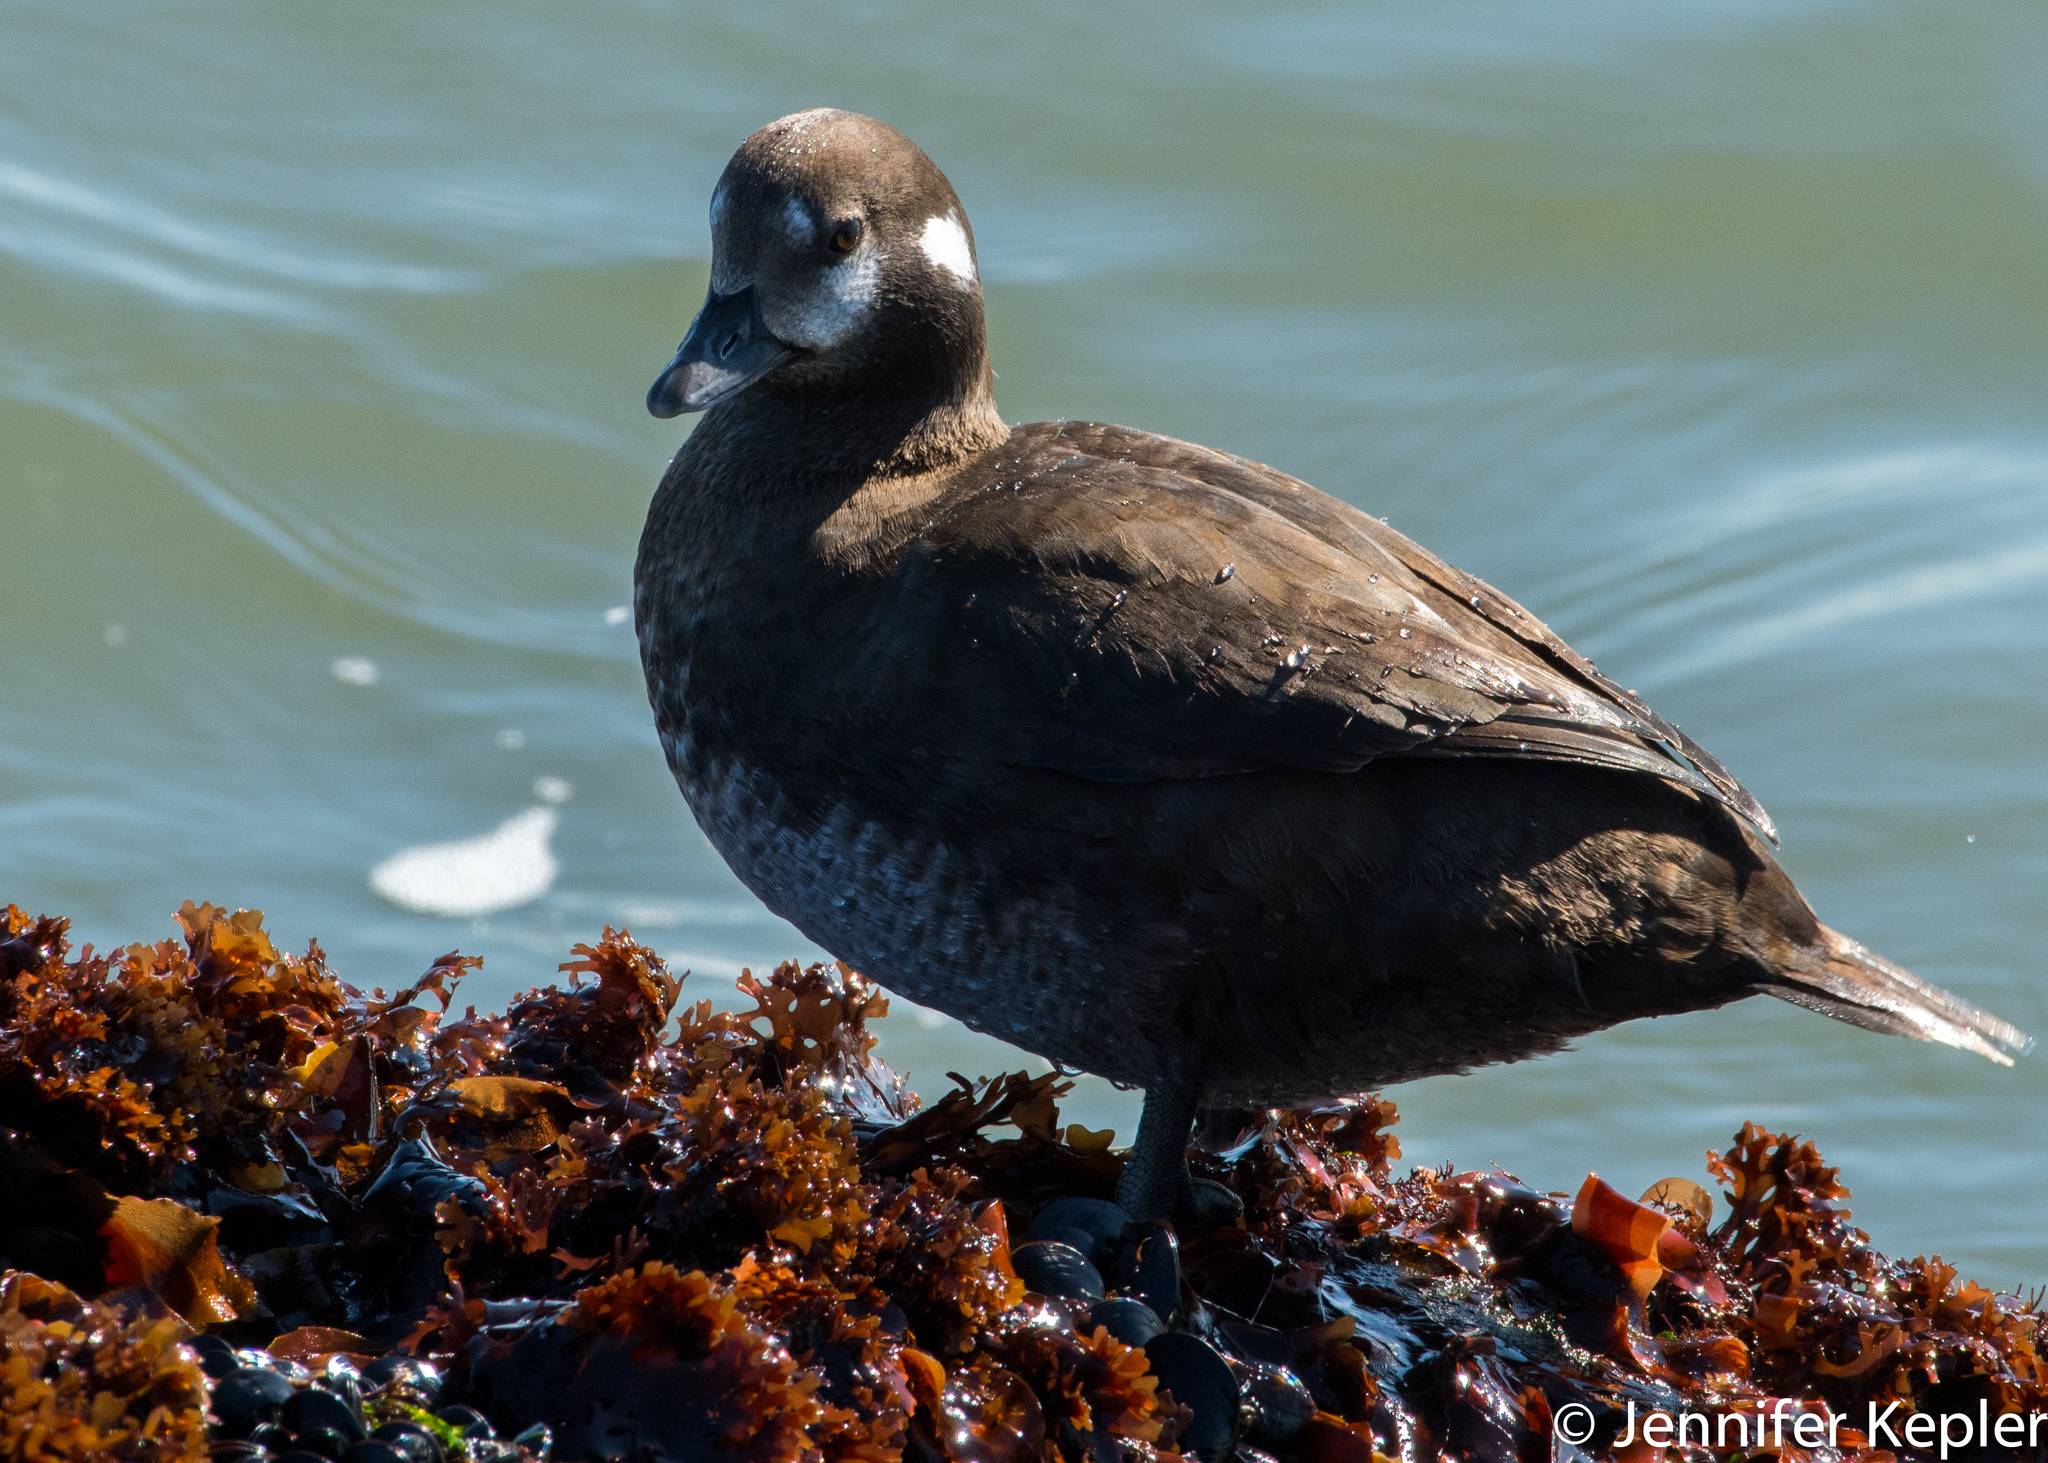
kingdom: Animalia
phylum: Chordata
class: Aves
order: Anseriformes
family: Anatidae
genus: Histrionicus
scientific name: Histrionicus histrionicus
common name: Harlequin duck
